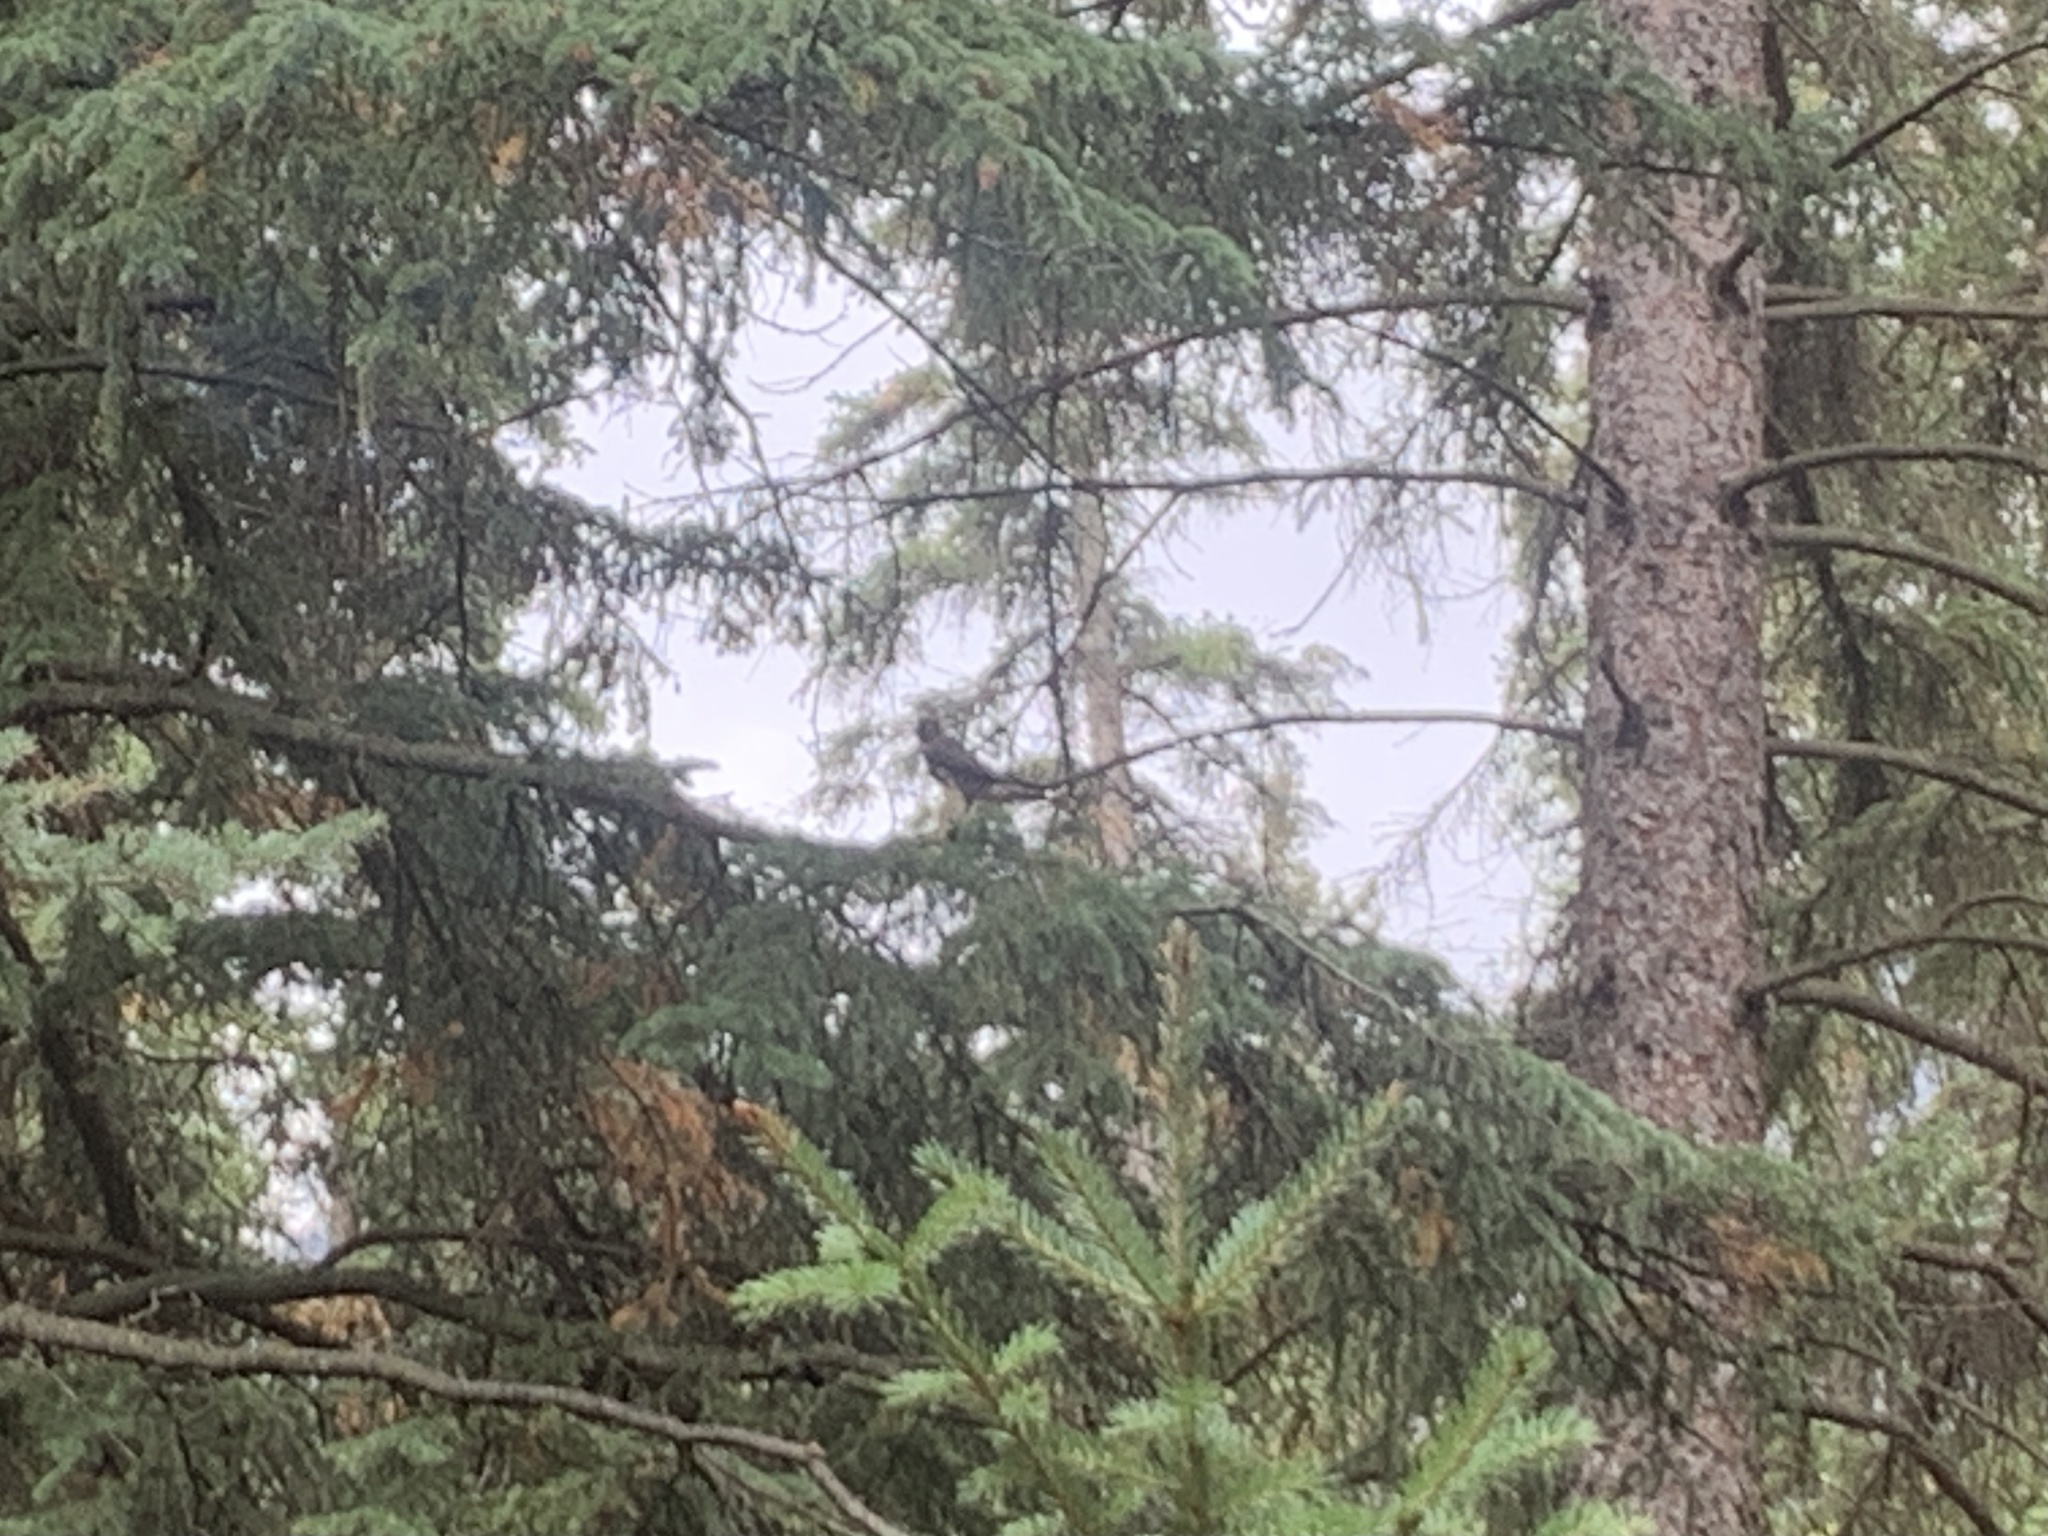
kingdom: Animalia
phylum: Chordata
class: Aves
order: Falconiformes
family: Falconidae
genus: Falco
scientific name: Falco columbarius
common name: Merlin
